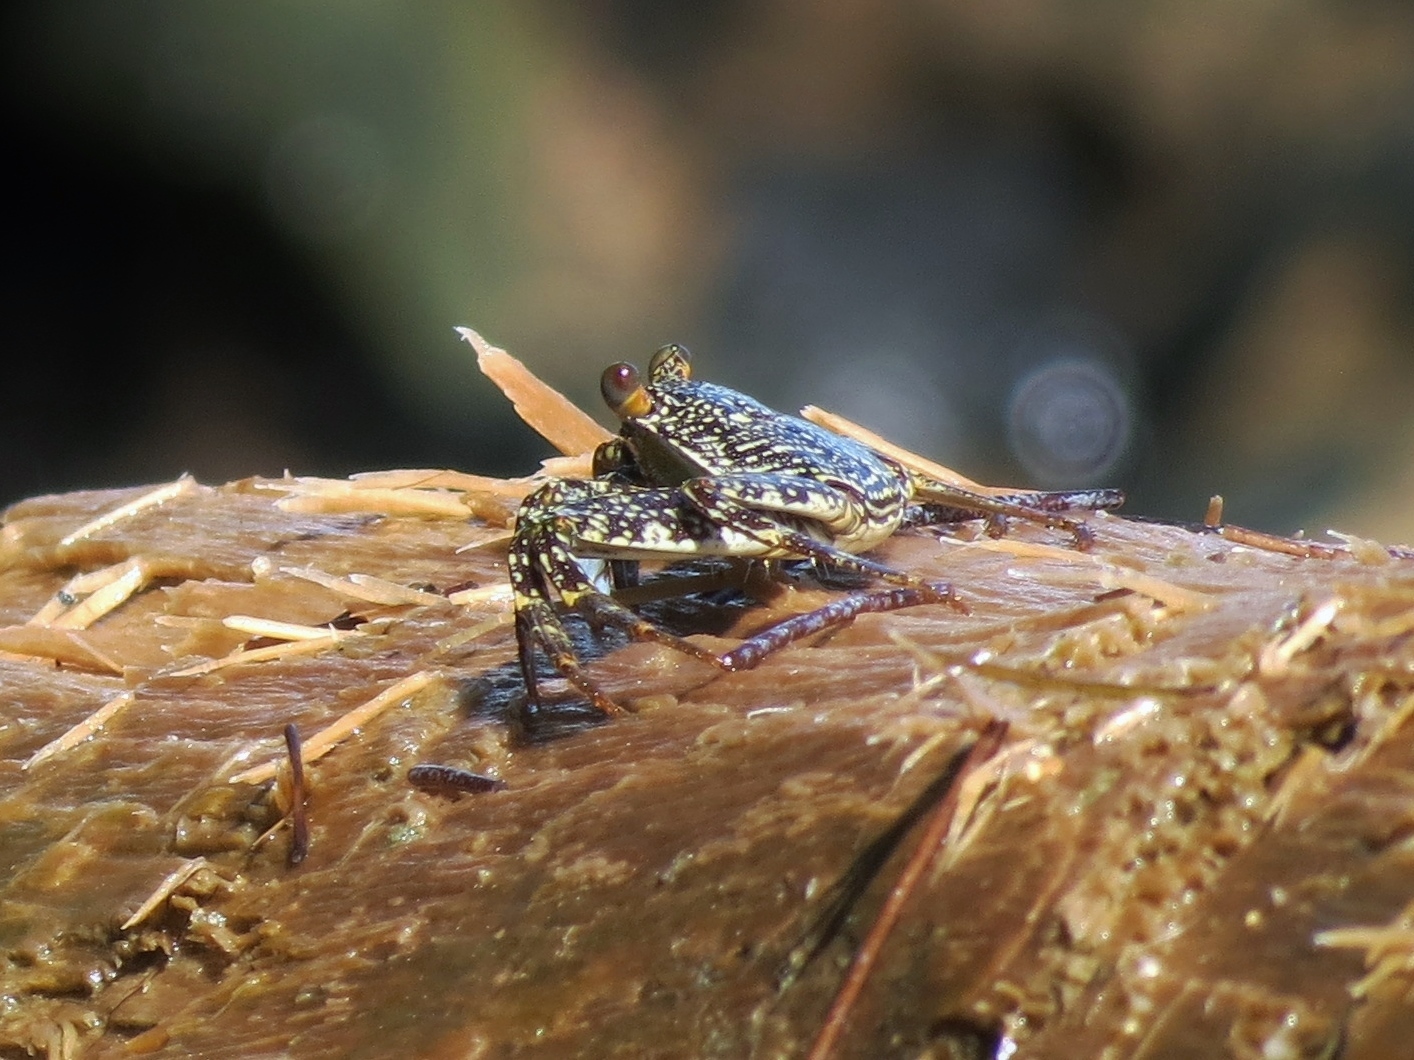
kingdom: Animalia
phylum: Arthropoda
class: Malacostraca
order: Decapoda
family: Grapsidae
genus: Grapsus
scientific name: Grapsus grapsus
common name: Sally lightfoot
